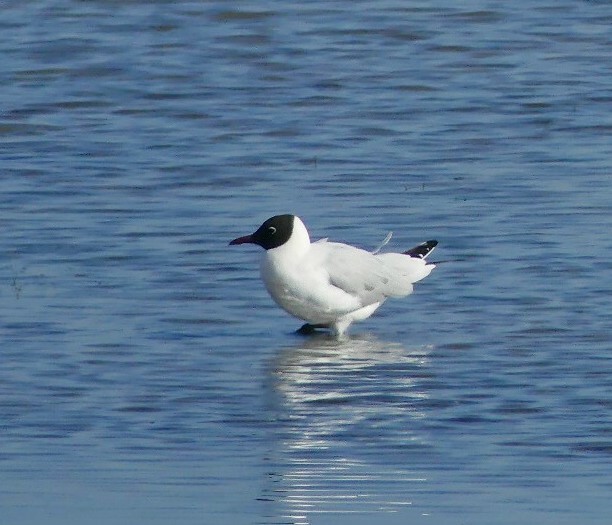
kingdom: Animalia
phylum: Chordata
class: Aves
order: Charadriiformes
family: Laridae
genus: Chroicocephalus
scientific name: Chroicocephalus ridibundus
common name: Black-headed gull
